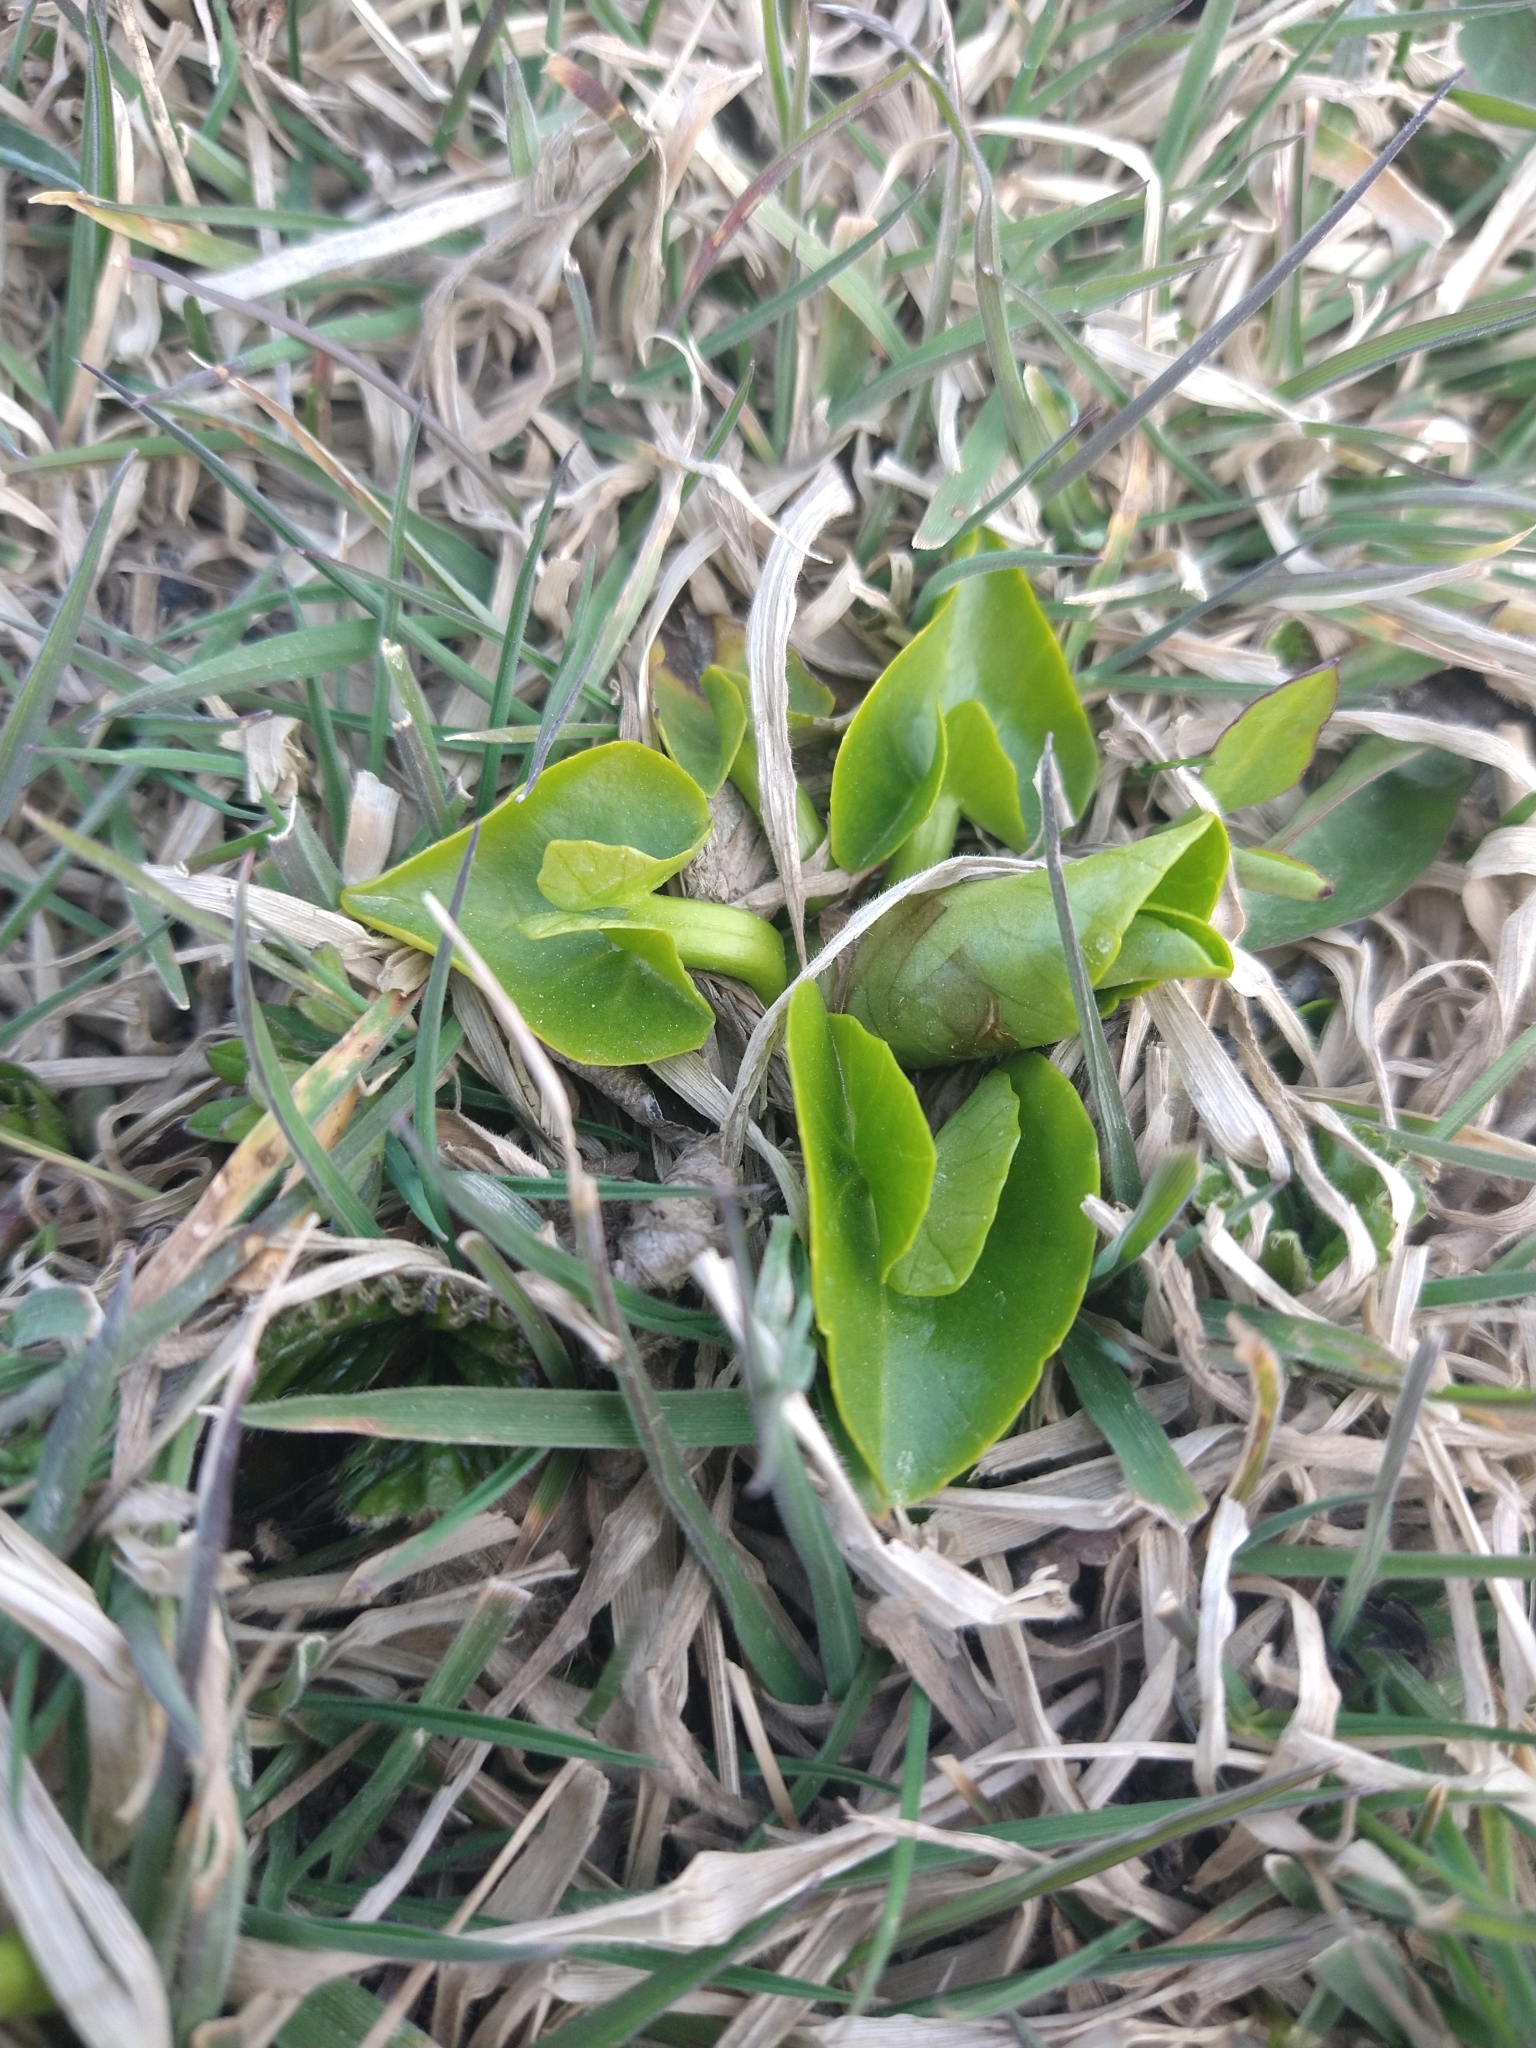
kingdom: Plantae
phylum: Tracheophyta
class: Magnoliopsida
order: Ranunculales
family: Ranunculaceae
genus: Caltha
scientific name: Caltha sagittata
